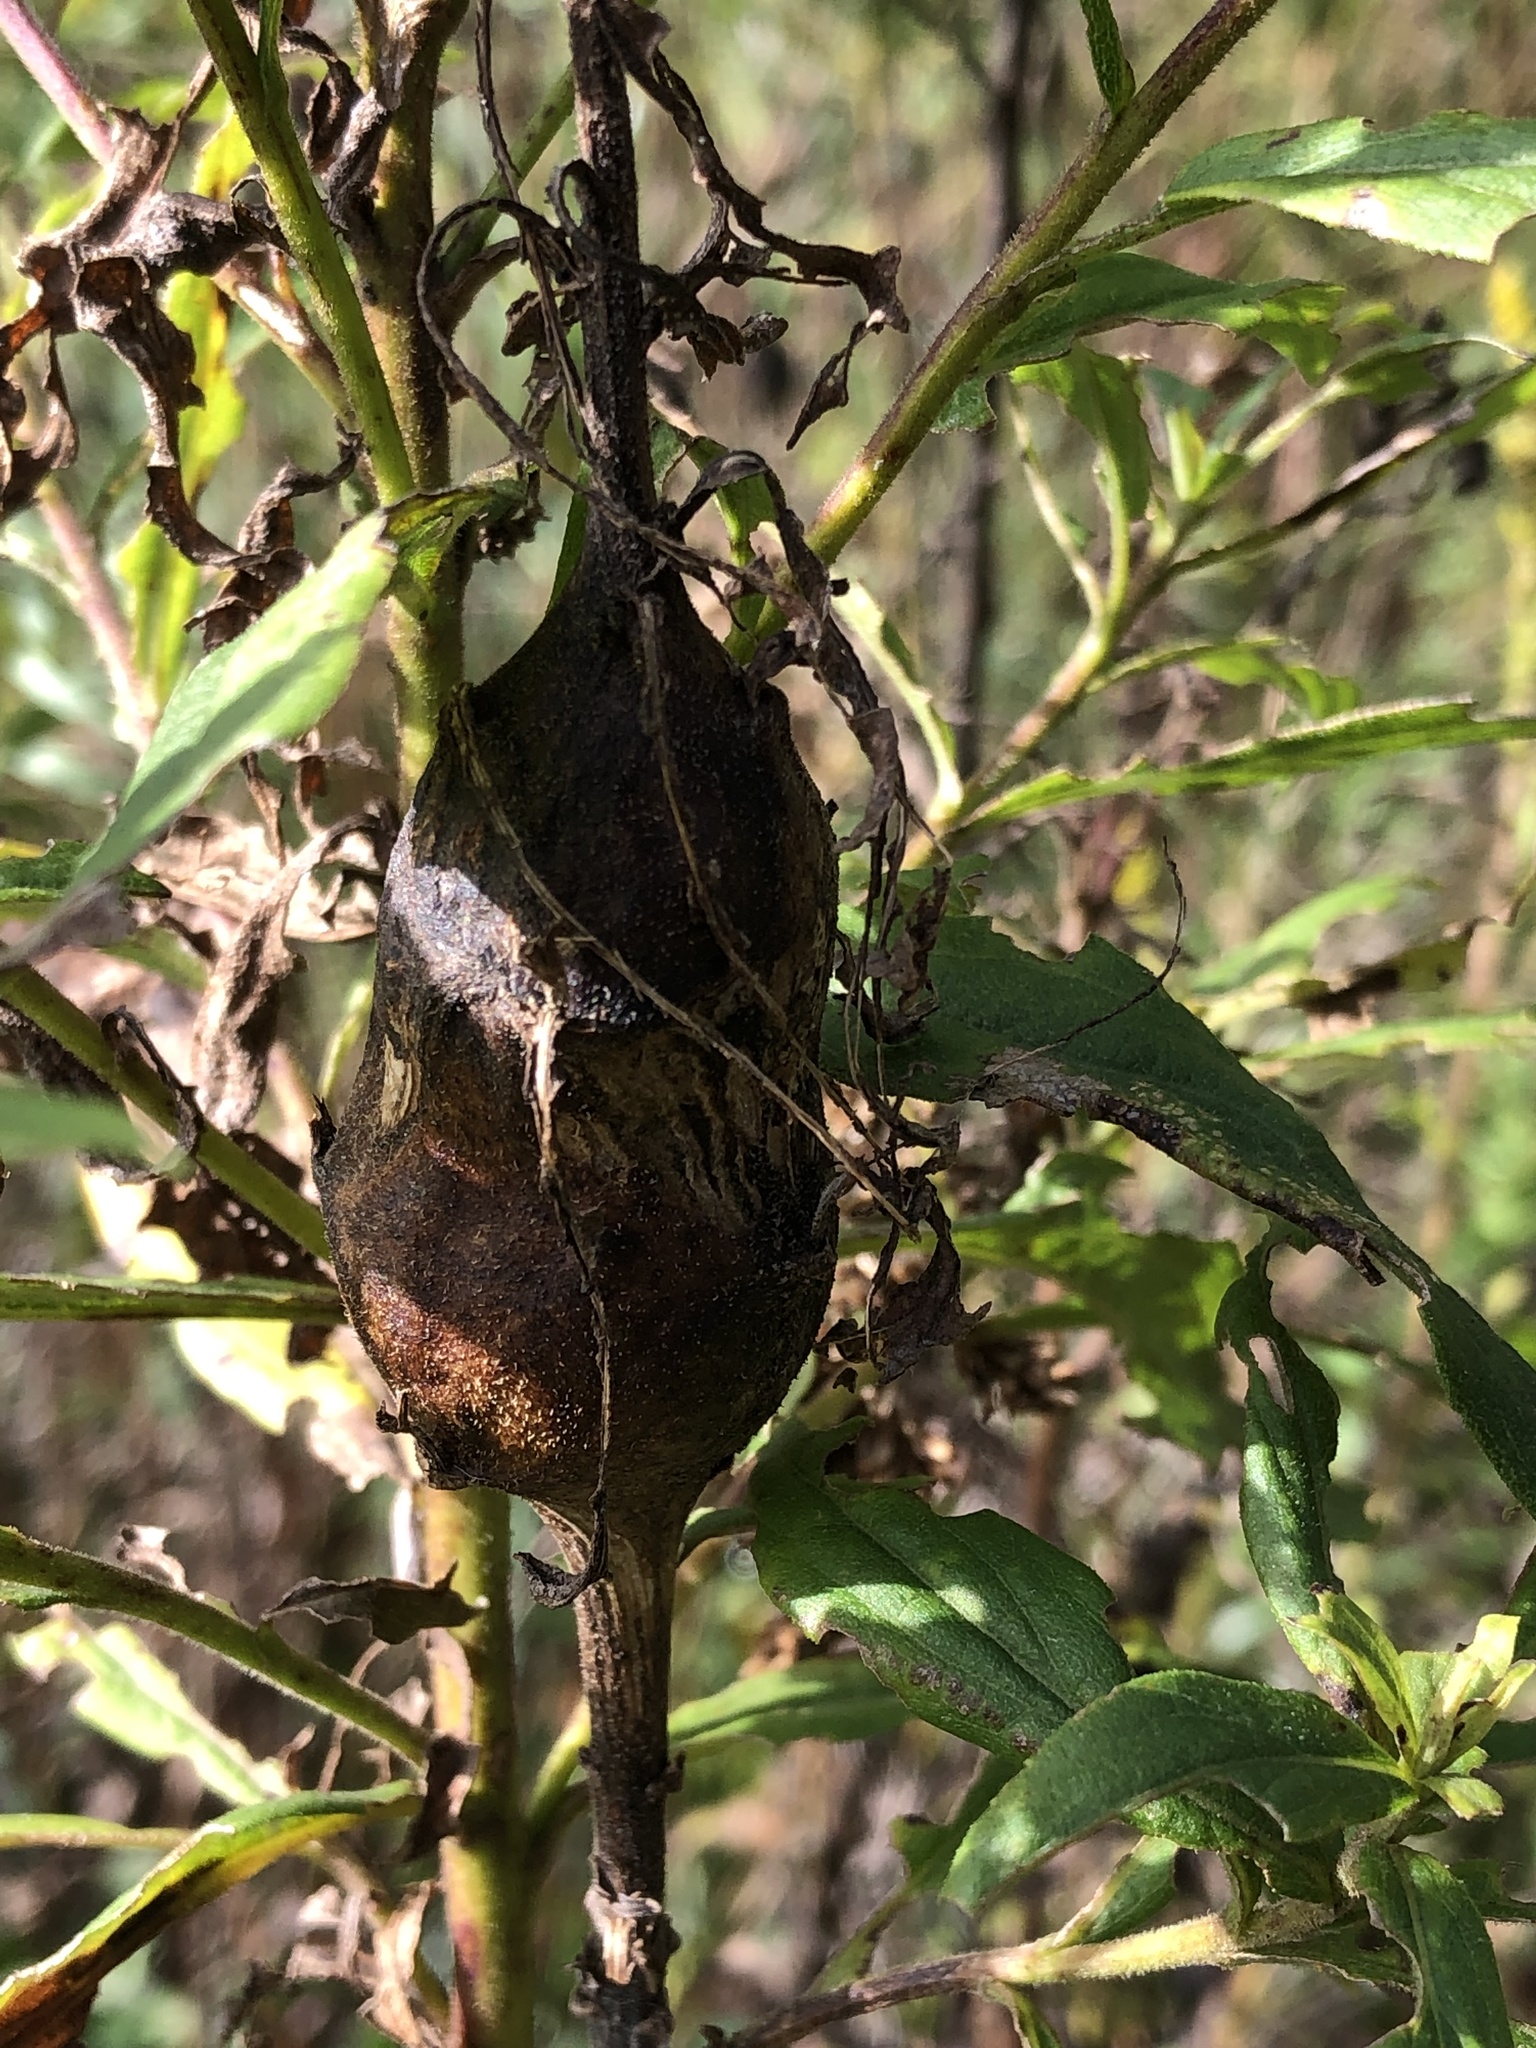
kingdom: Animalia
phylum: Arthropoda
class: Insecta
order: Diptera
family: Tephritidae
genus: Eurosta
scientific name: Eurosta solidaginis
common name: Goldenrod gall fly
